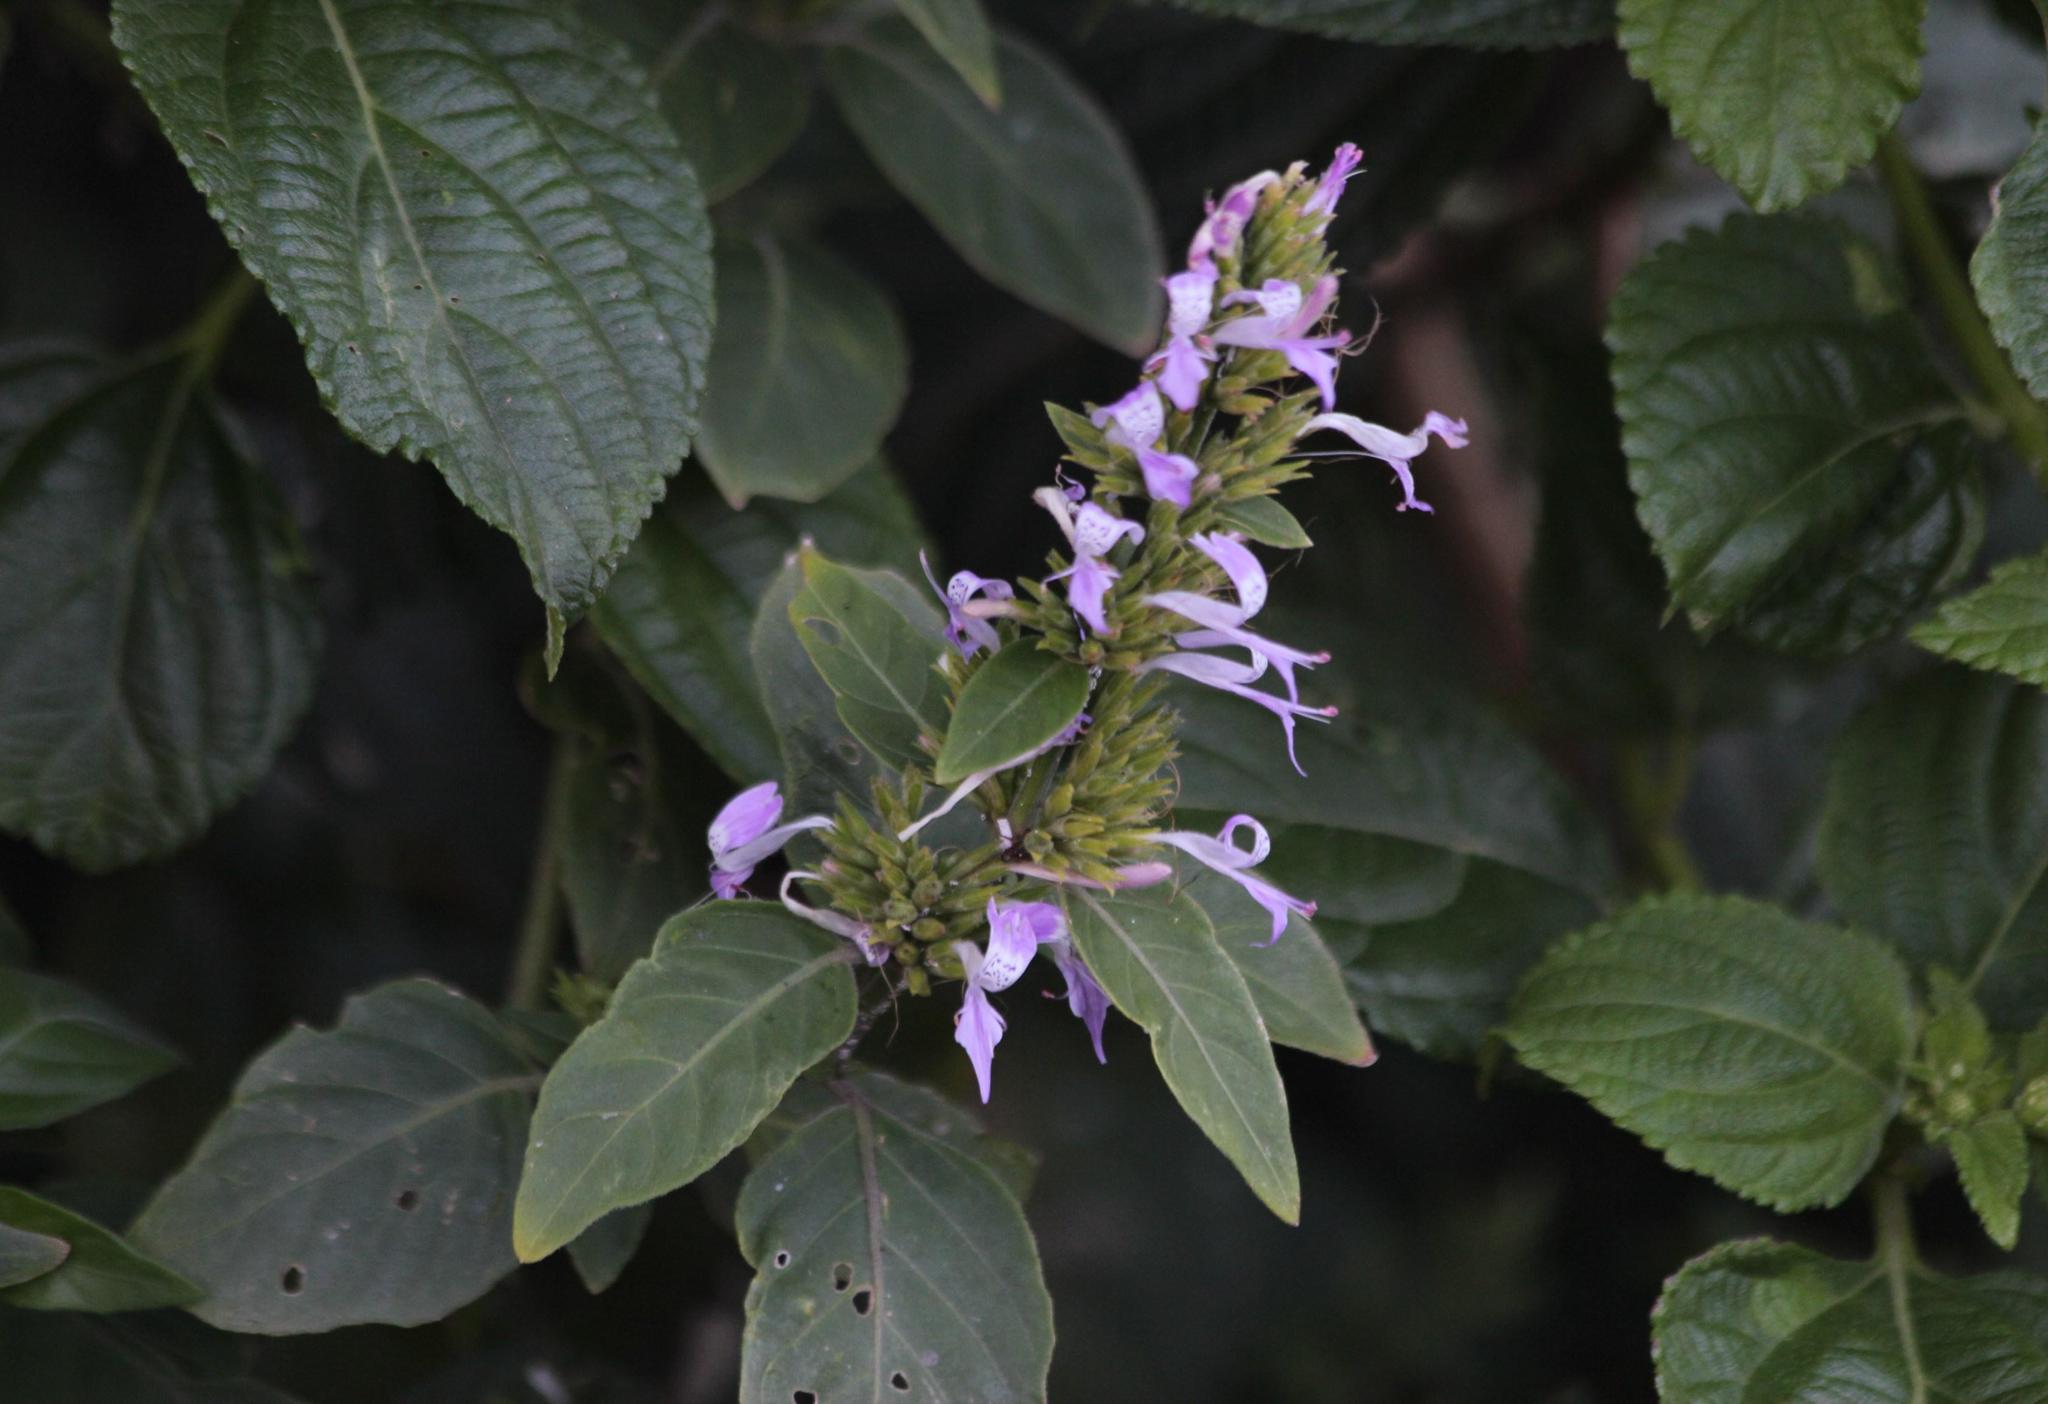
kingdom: Plantae
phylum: Tracheophyta
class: Magnoliopsida
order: Lamiales
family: Acanthaceae
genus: Hypoestes
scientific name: Hypoestes forskaolii
